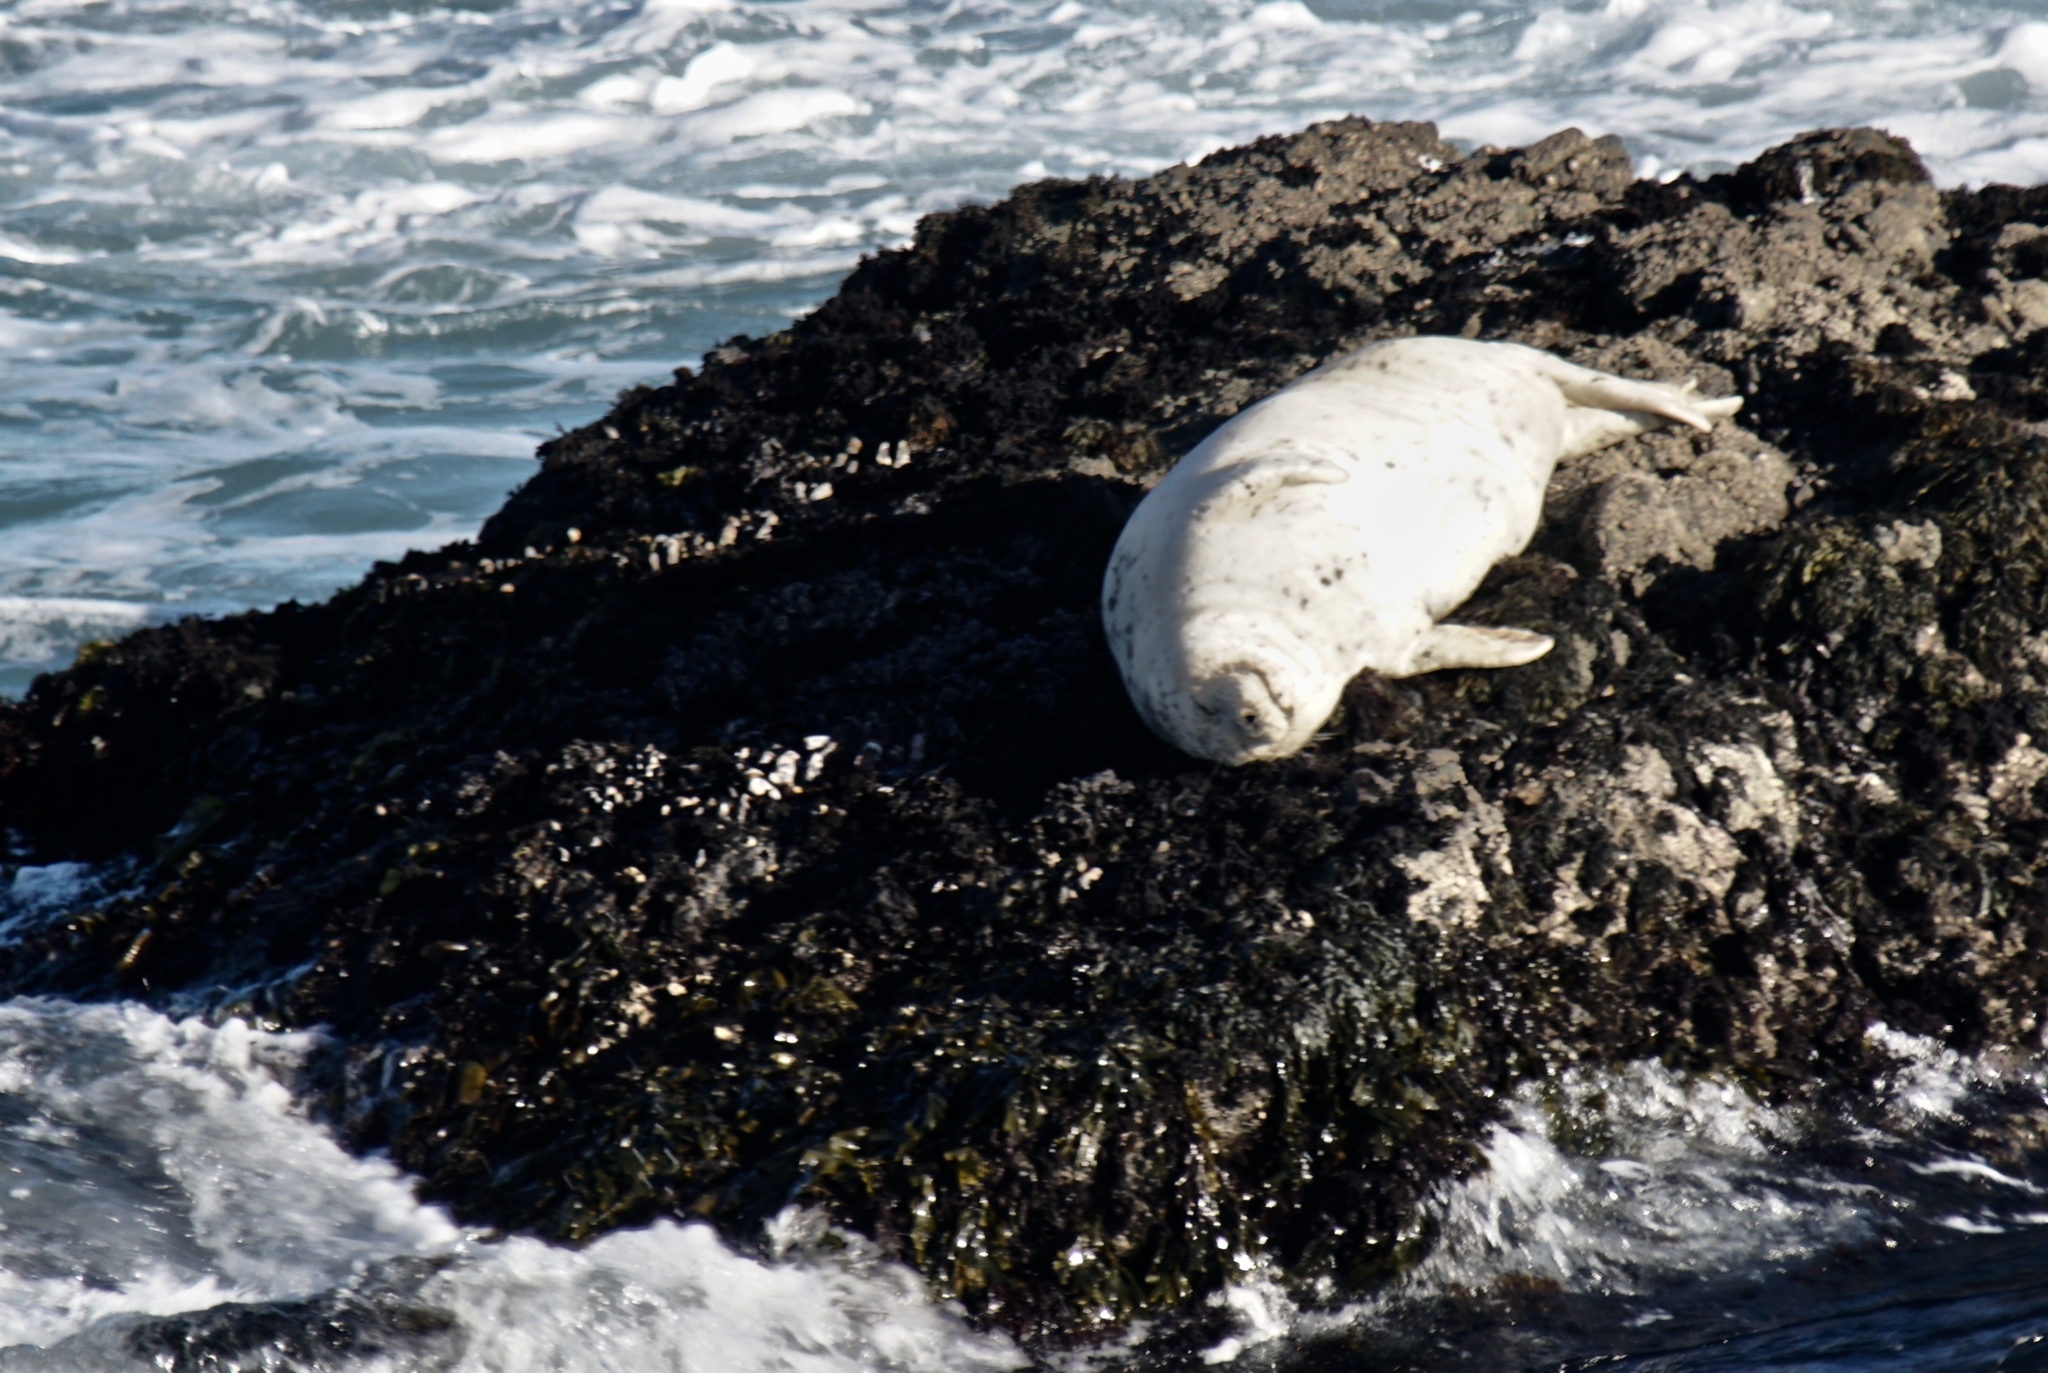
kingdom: Animalia
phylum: Chordata
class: Mammalia
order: Carnivora
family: Phocidae
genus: Phoca
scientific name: Phoca vitulina
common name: Harbor seal
